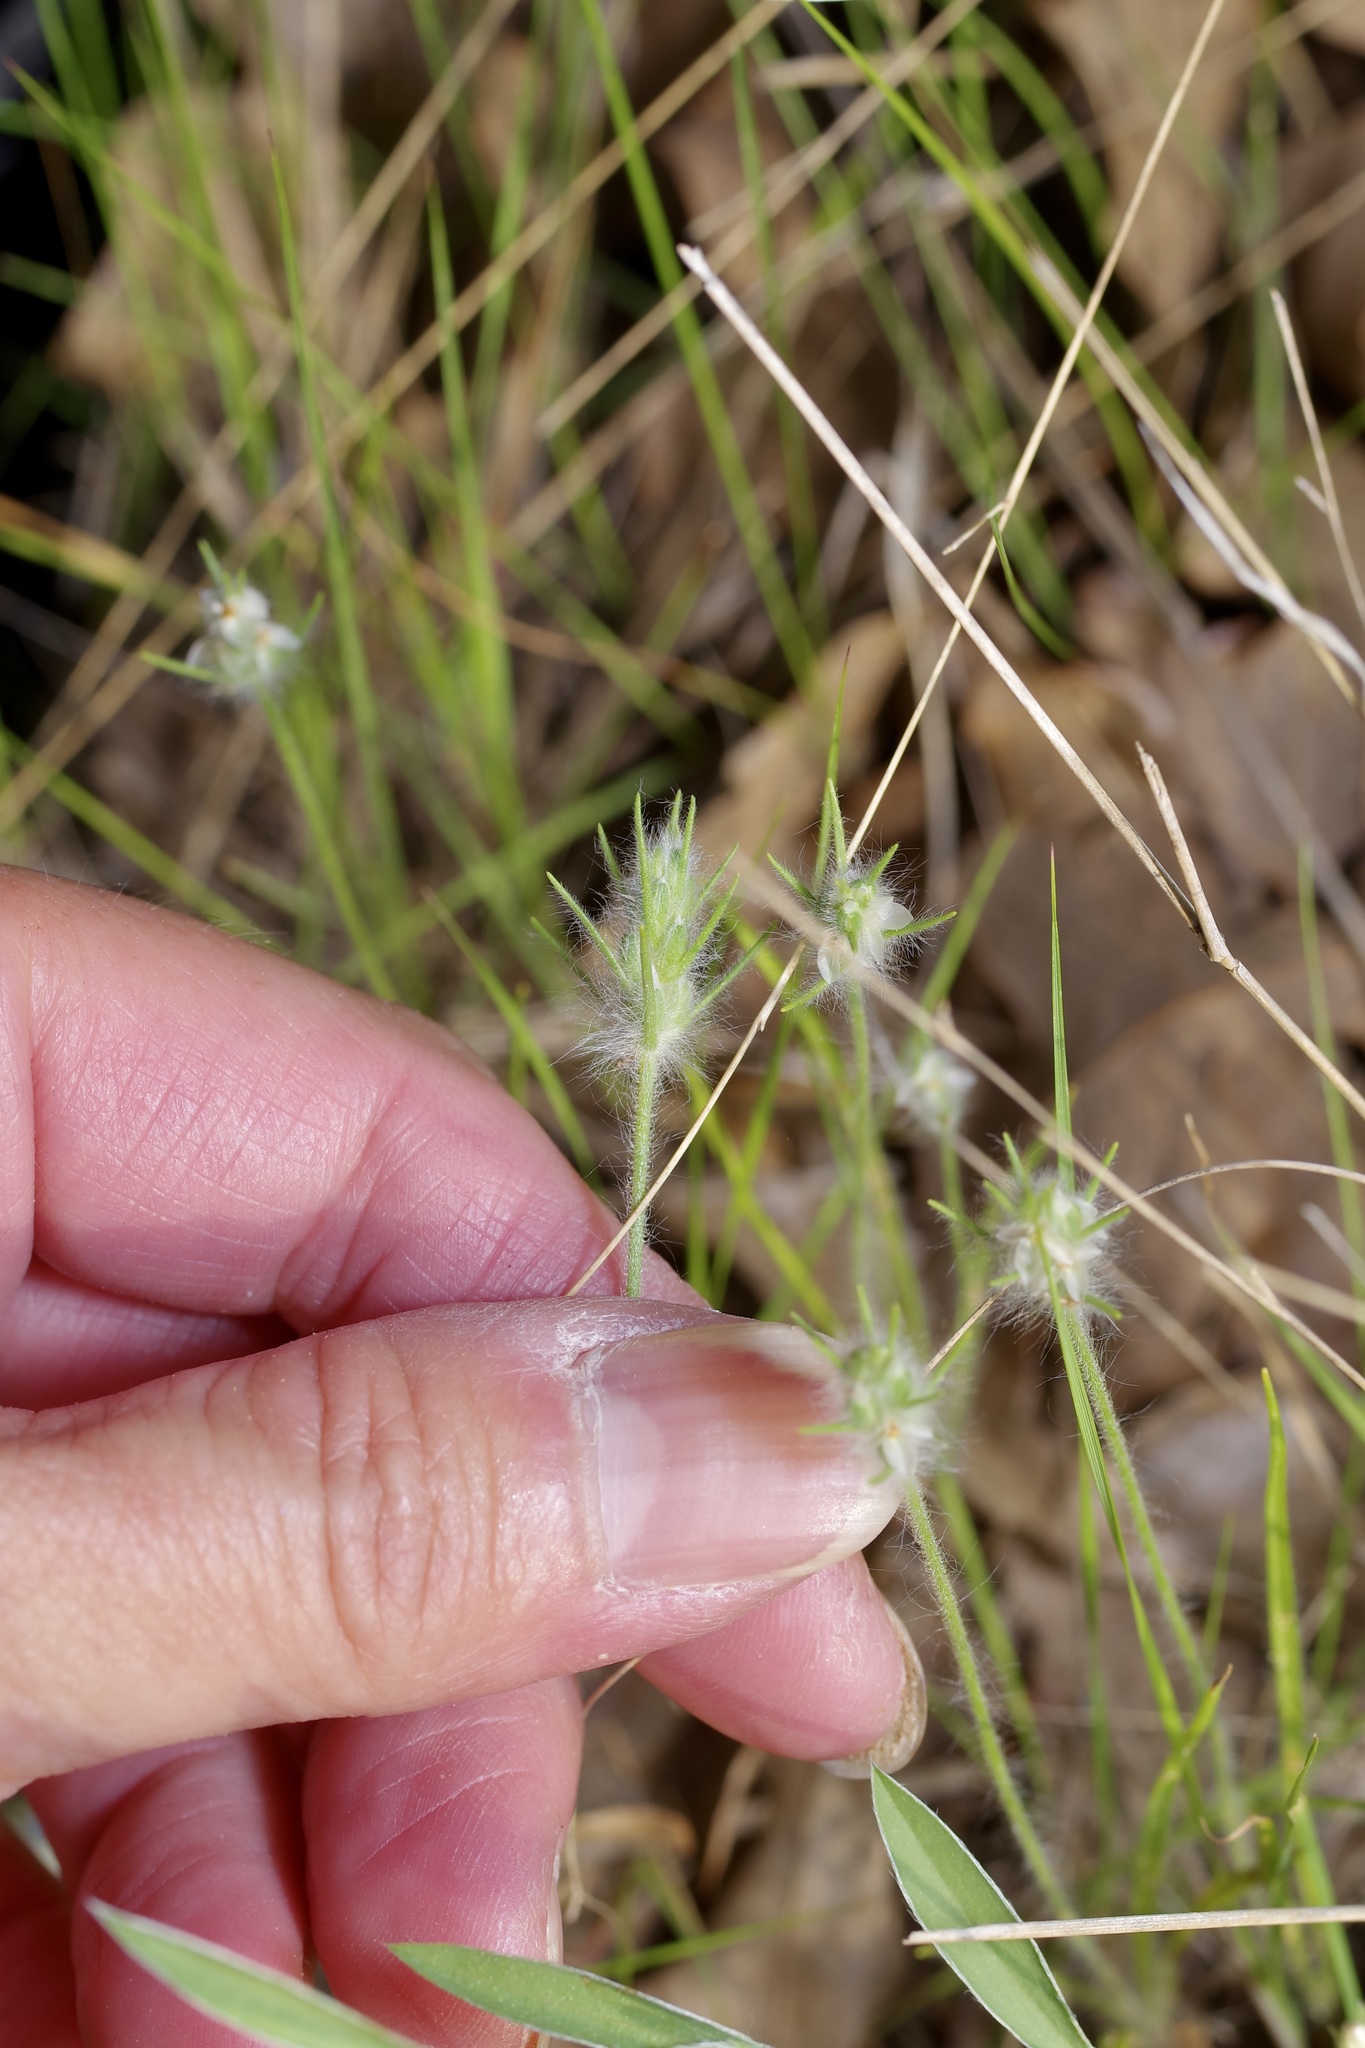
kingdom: Plantae
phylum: Tracheophyta
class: Magnoliopsida
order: Lamiales
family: Plantaginaceae
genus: Plantago
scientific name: Plantago aristata
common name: Bracted plantain
